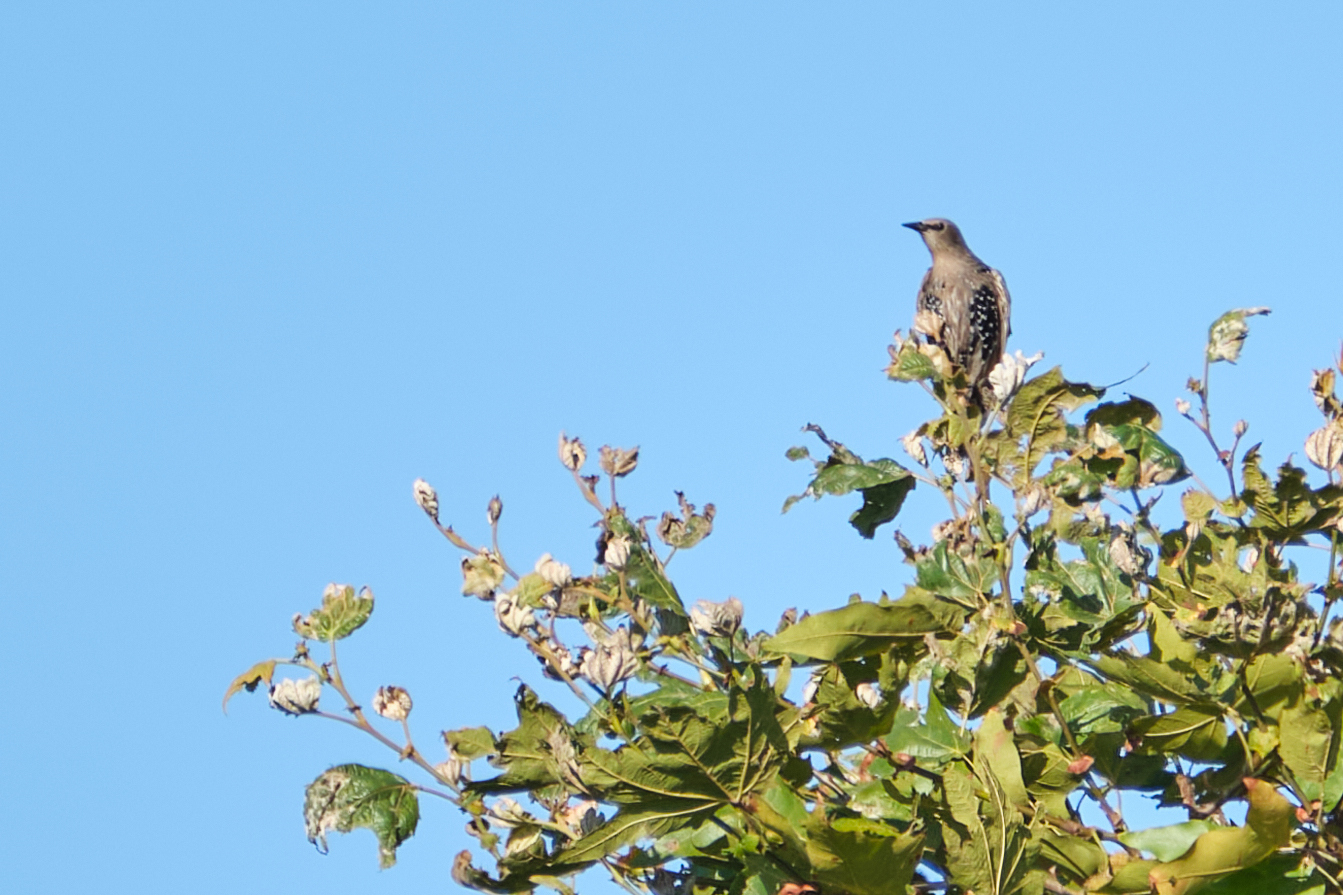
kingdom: Animalia
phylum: Chordata
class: Aves
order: Passeriformes
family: Sturnidae
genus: Sturnus
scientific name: Sturnus vulgaris
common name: Common starling
